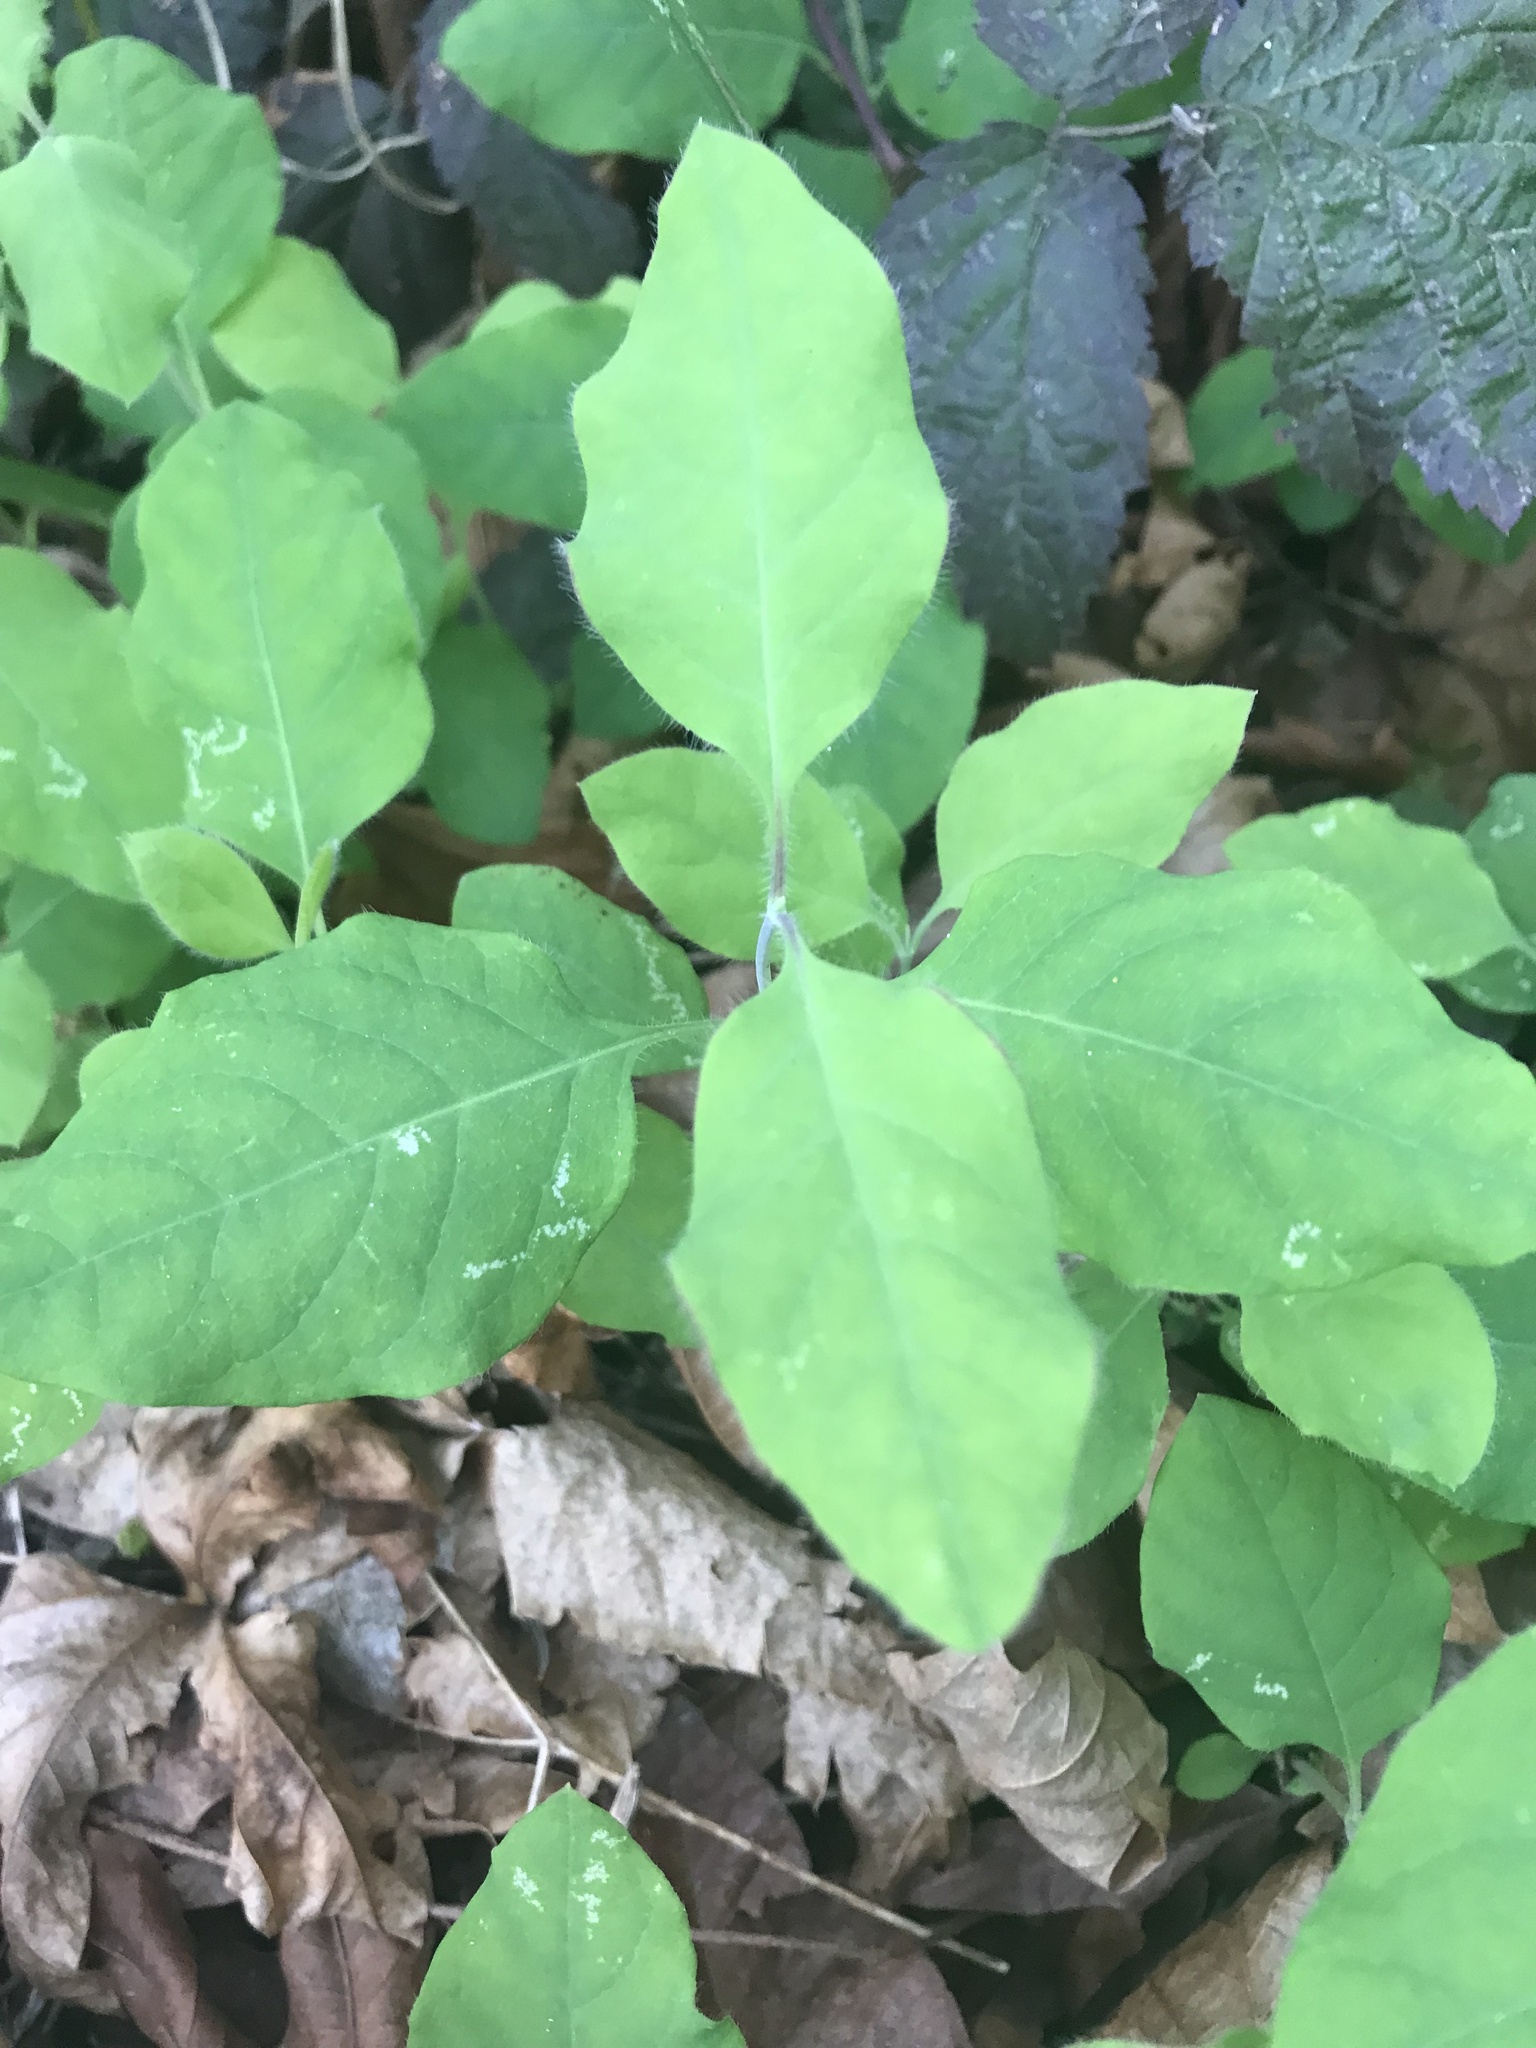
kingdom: Plantae
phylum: Tracheophyta
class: Magnoliopsida
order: Dipsacales
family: Caprifoliaceae
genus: Lonicera
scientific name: Lonicera ciliosa
